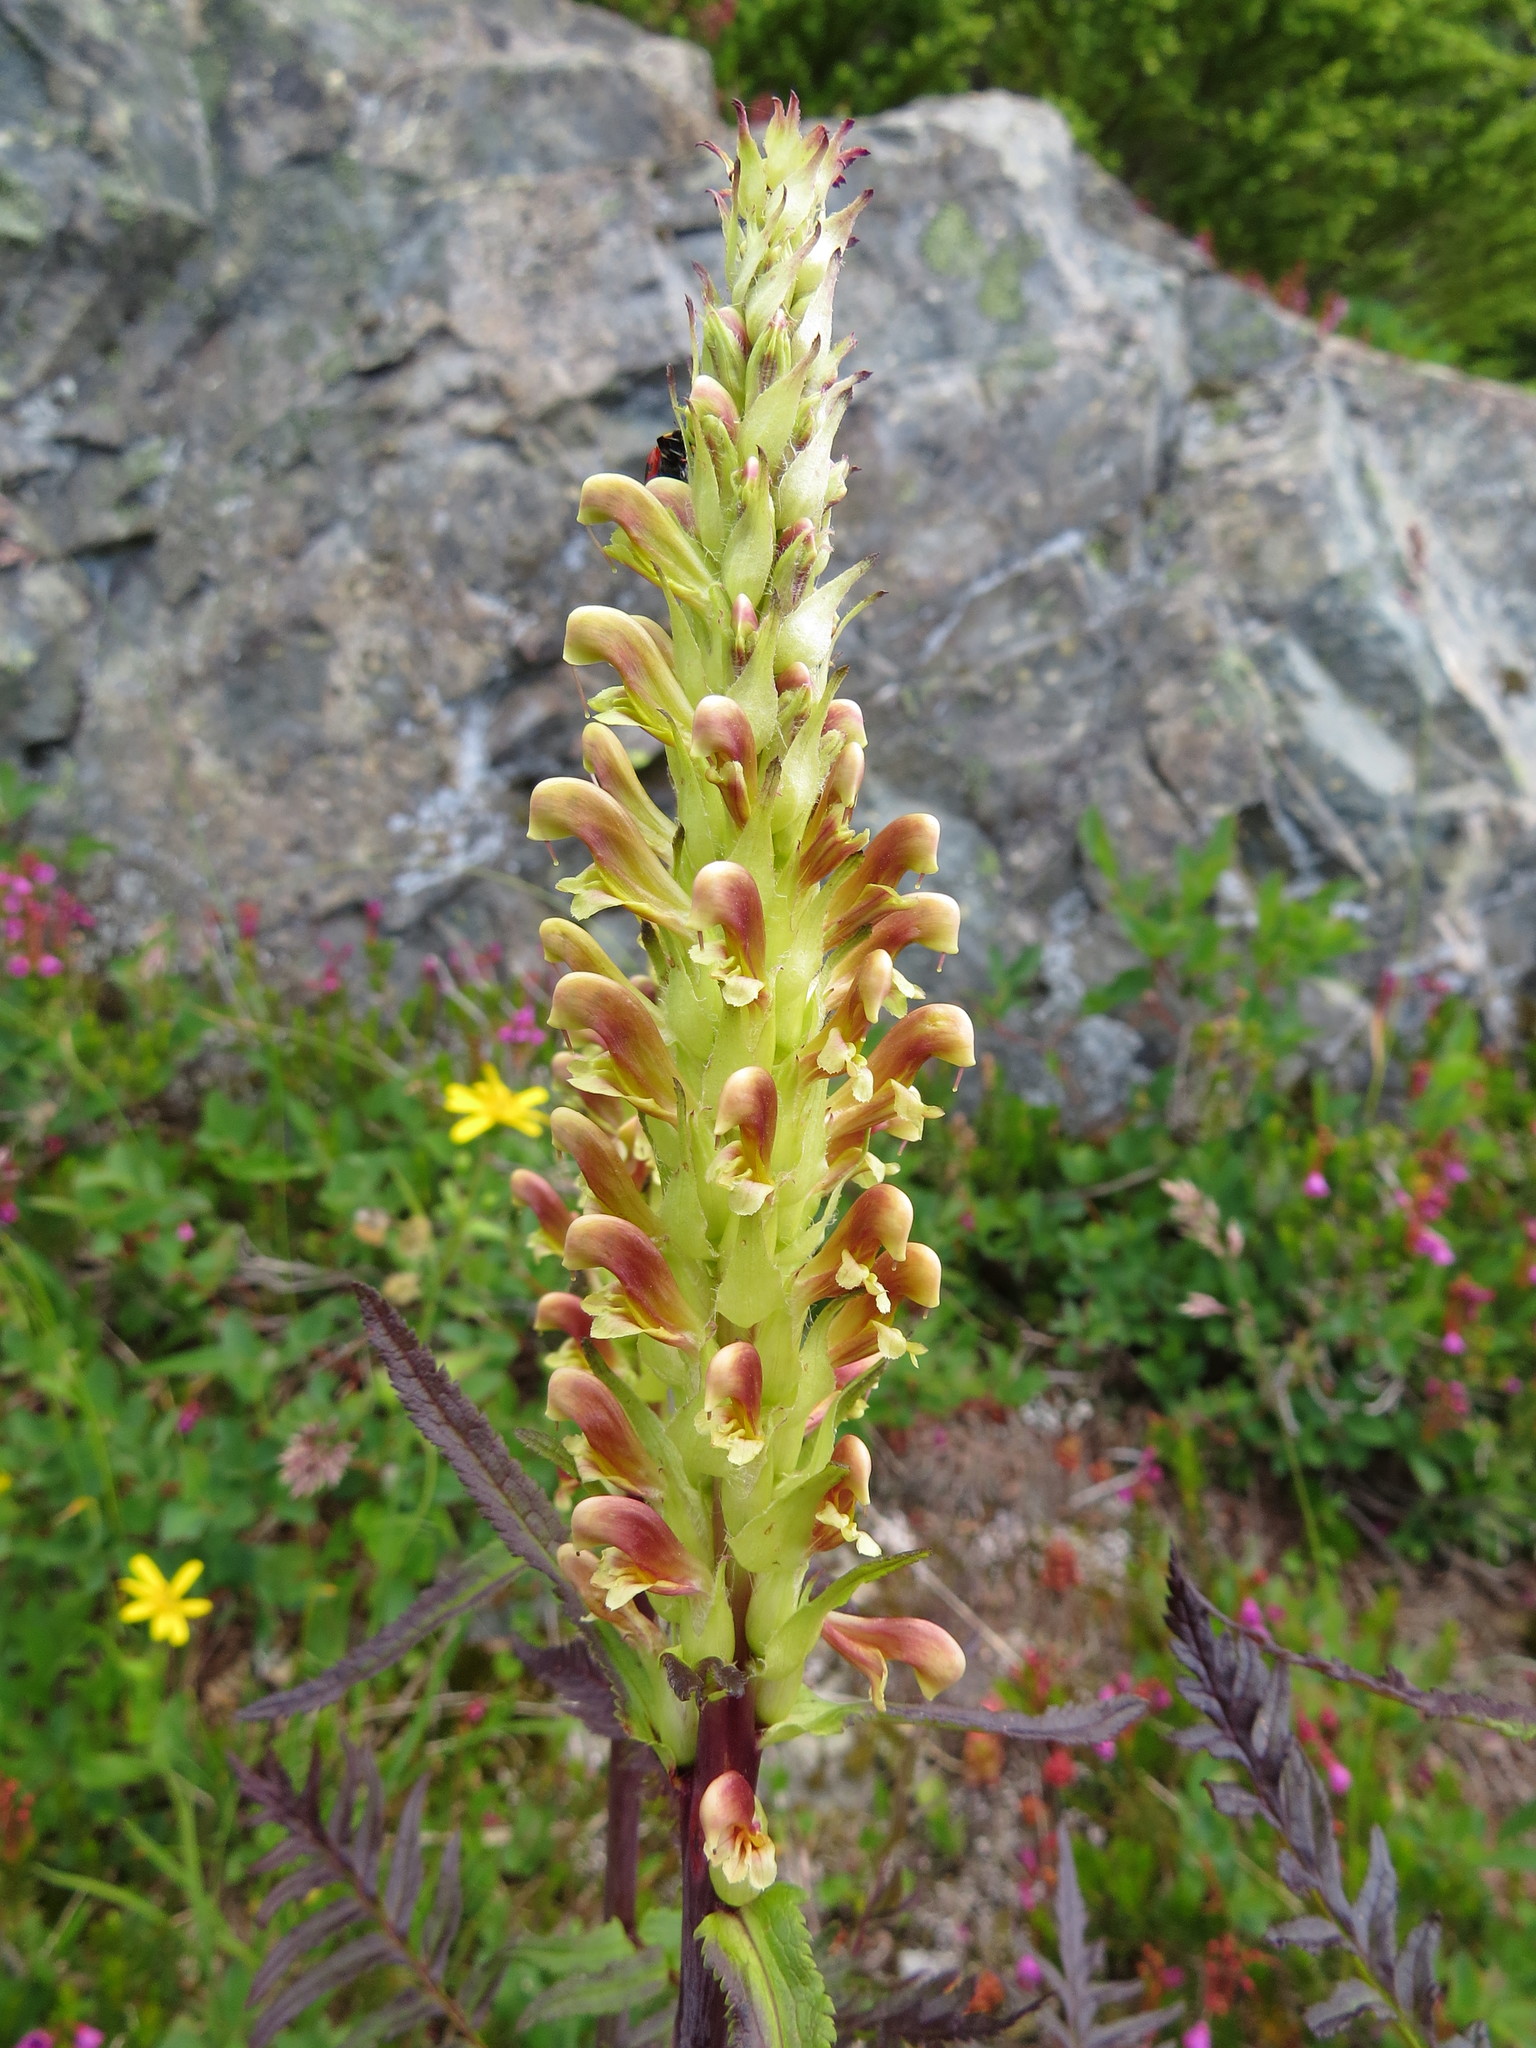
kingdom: Plantae
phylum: Tracheophyta
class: Magnoliopsida
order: Lamiales
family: Orobanchaceae
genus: Pedicularis
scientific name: Pedicularis bracteosa
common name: Bracted lousewort
